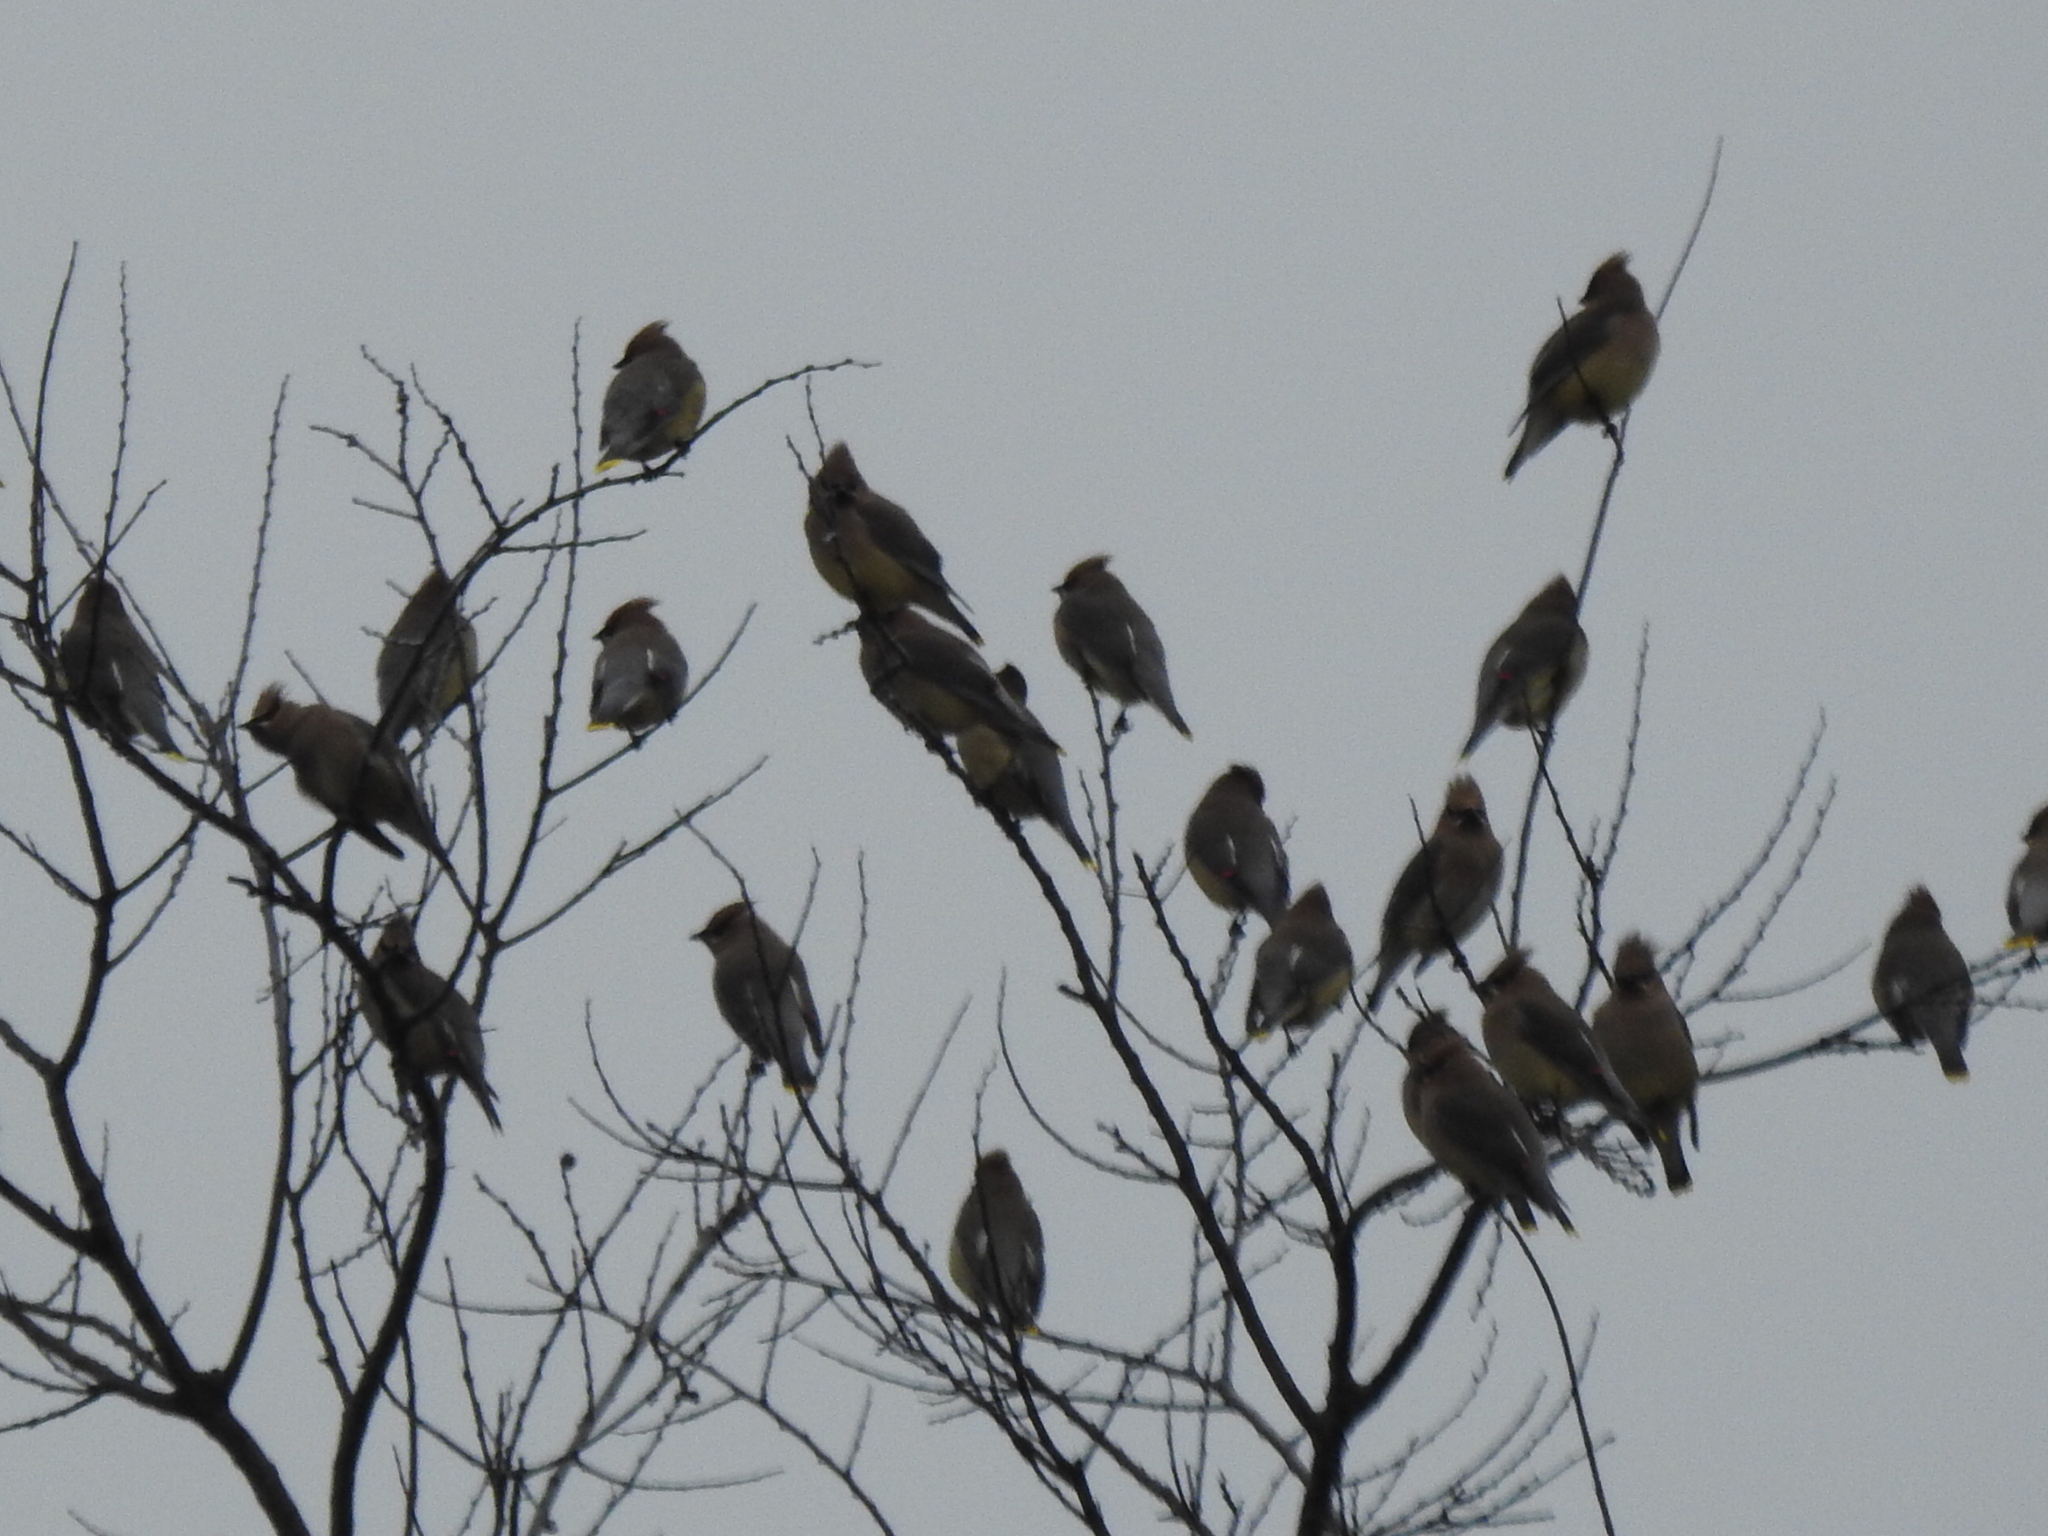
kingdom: Animalia
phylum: Chordata
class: Aves
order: Passeriformes
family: Bombycillidae
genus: Bombycilla
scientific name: Bombycilla cedrorum
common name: Cedar waxwing
